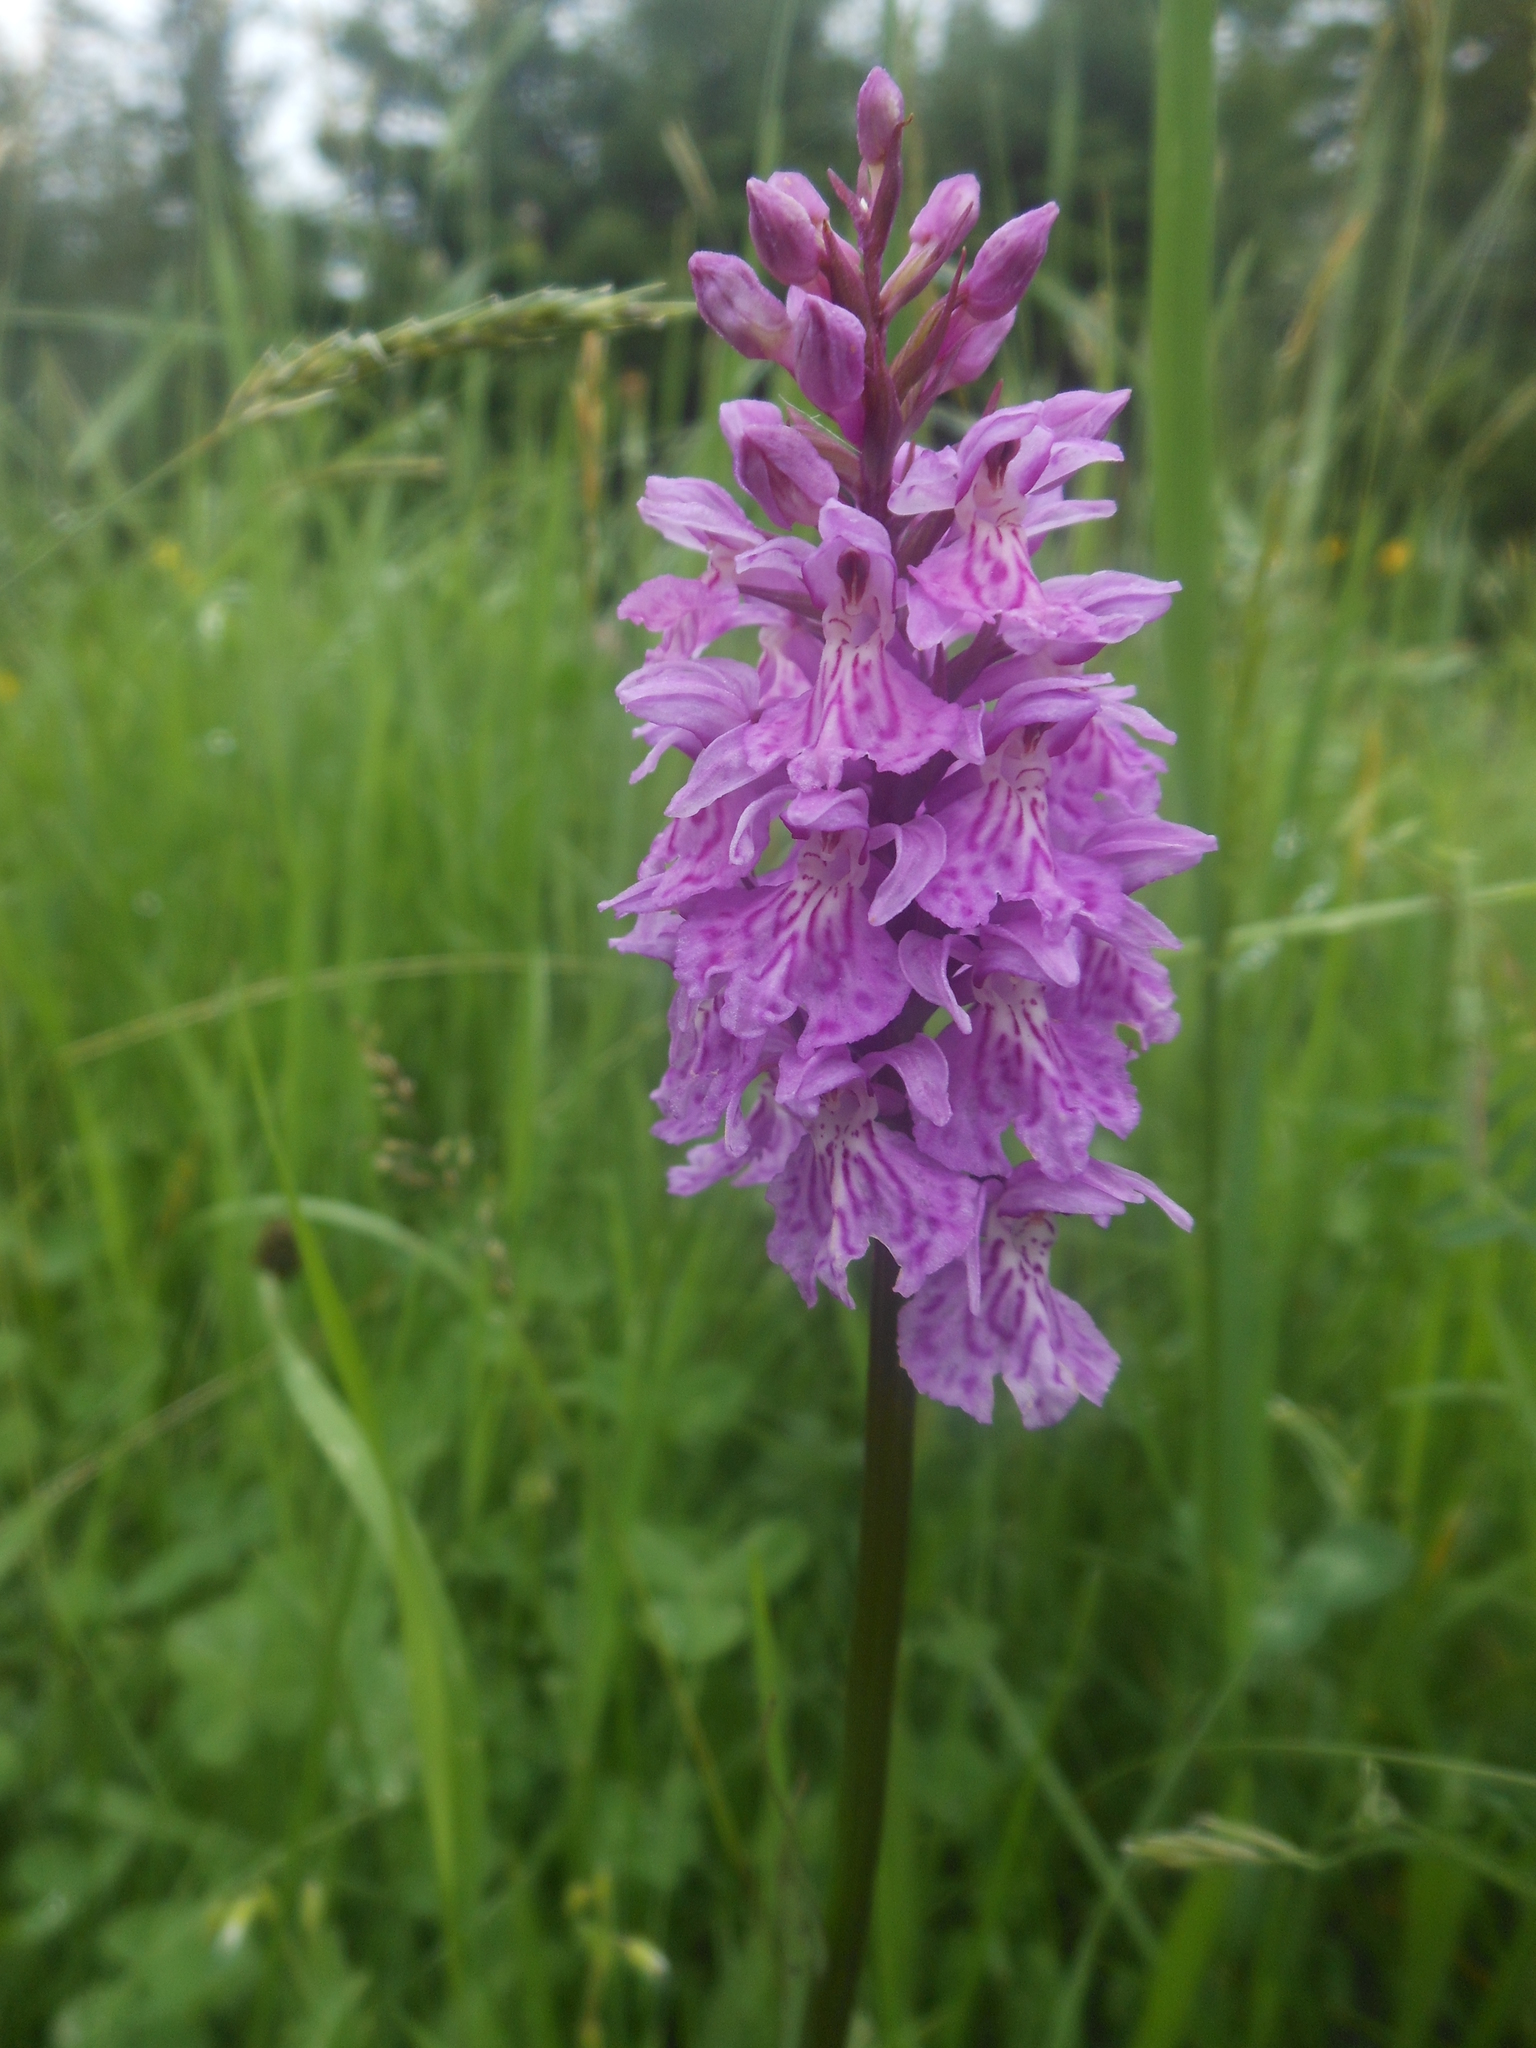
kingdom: Plantae
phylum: Tracheophyta
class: Liliopsida
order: Asparagales
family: Orchidaceae
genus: Dactylorhiza
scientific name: Dactylorhiza maculata
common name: Heath spotted-orchid
